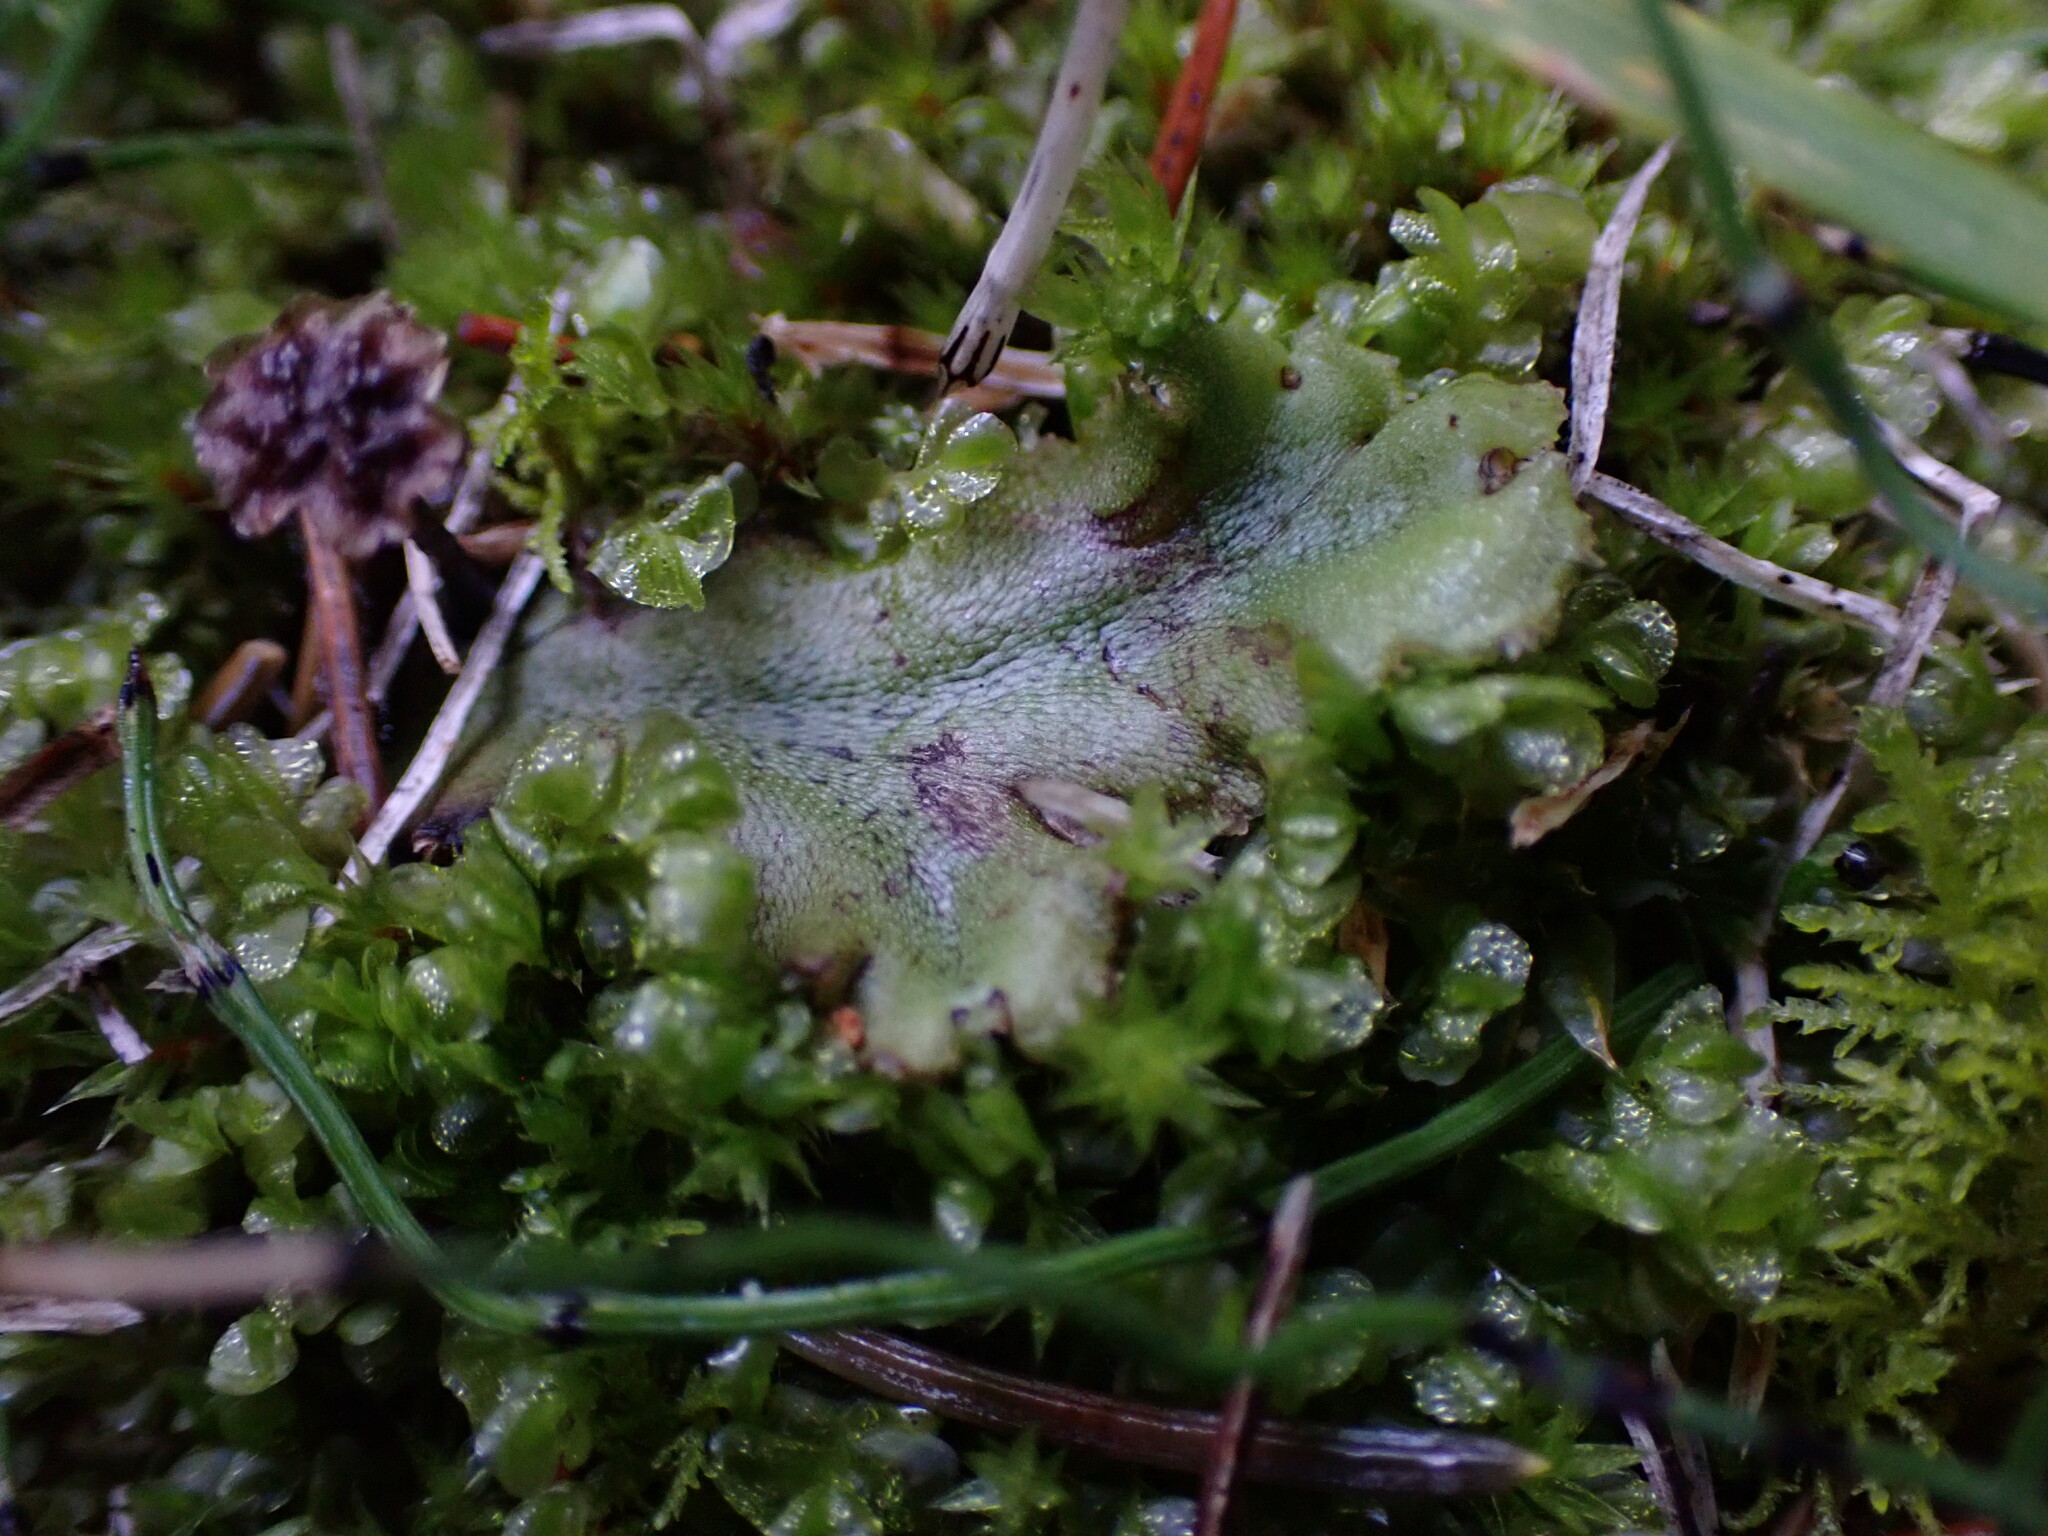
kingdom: Plantae
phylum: Marchantiophyta
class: Marchantiopsida
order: Marchantiales
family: Marchantiaceae
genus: Marchantia
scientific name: Marchantia polymorpha
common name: Common liverwort
